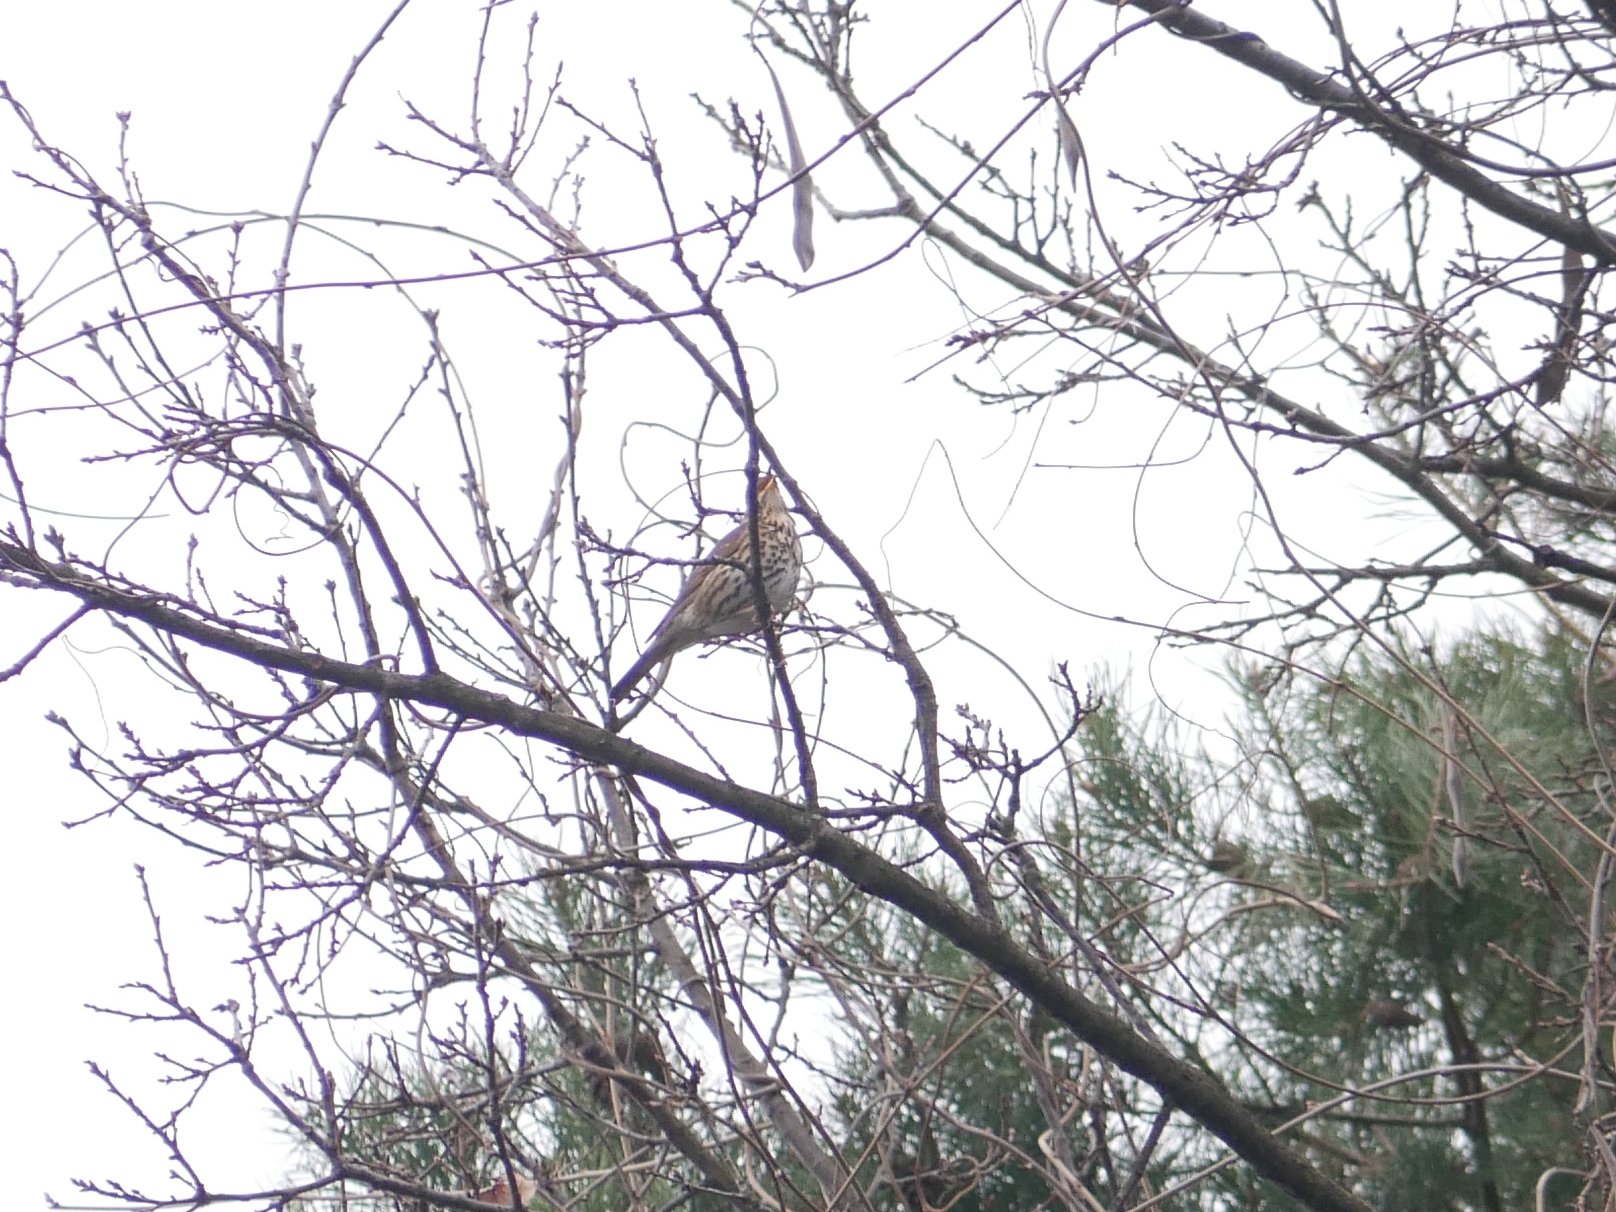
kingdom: Animalia
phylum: Chordata
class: Aves
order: Passeriformes
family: Turdidae
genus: Turdus
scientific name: Turdus philomelos
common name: Song thrush
